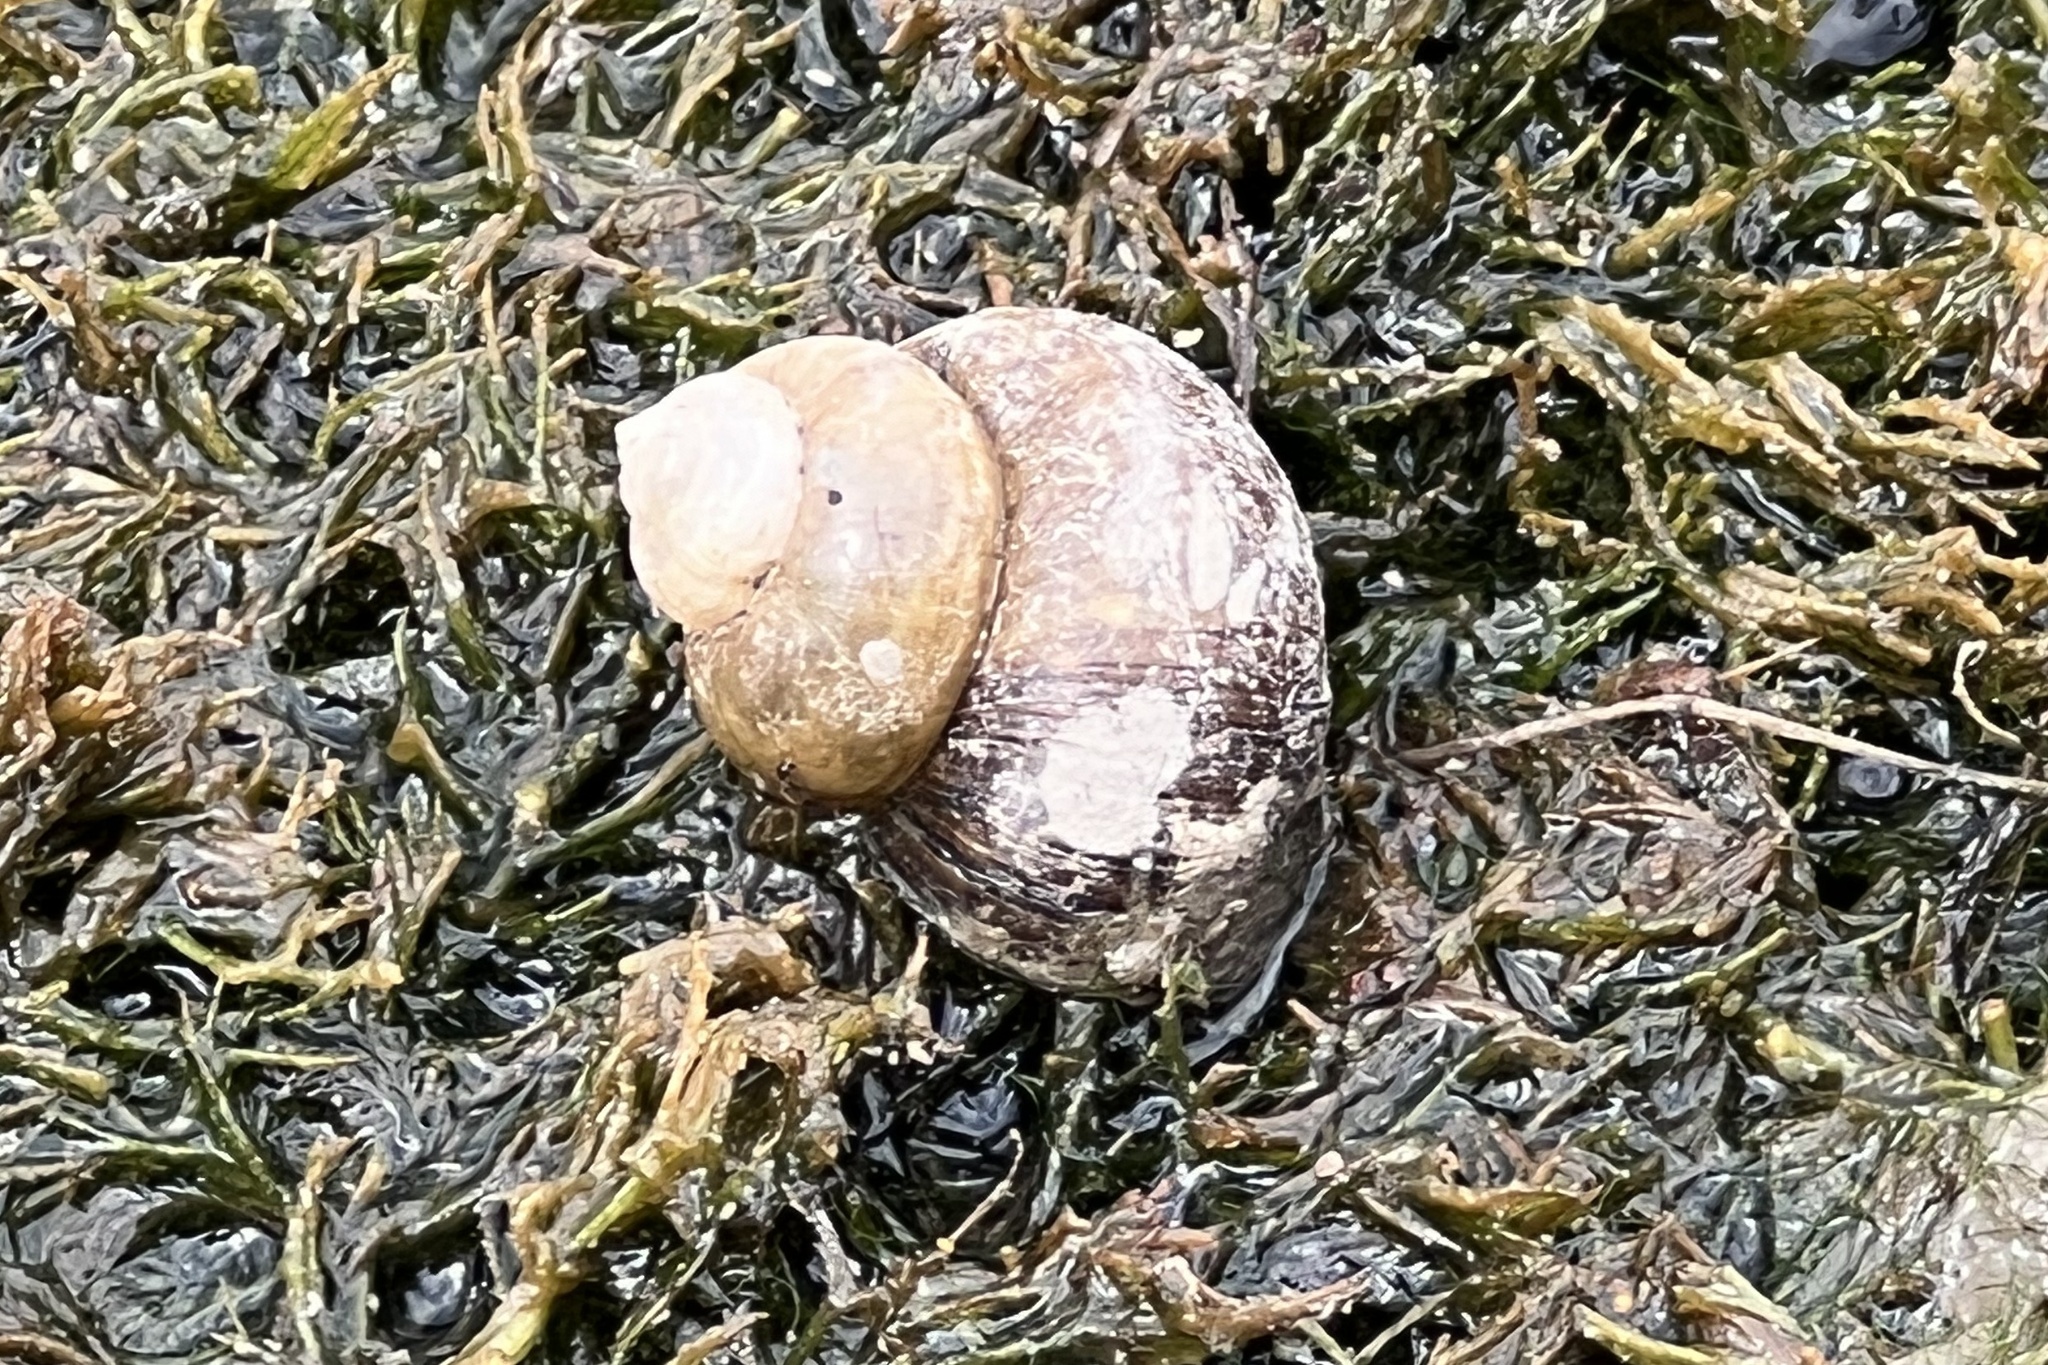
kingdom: Animalia
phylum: Mollusca
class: Gastropoda
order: Architaenioglossa
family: Viviparidae
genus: Viviparus
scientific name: Viviparus contectus
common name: Lister's river snail
